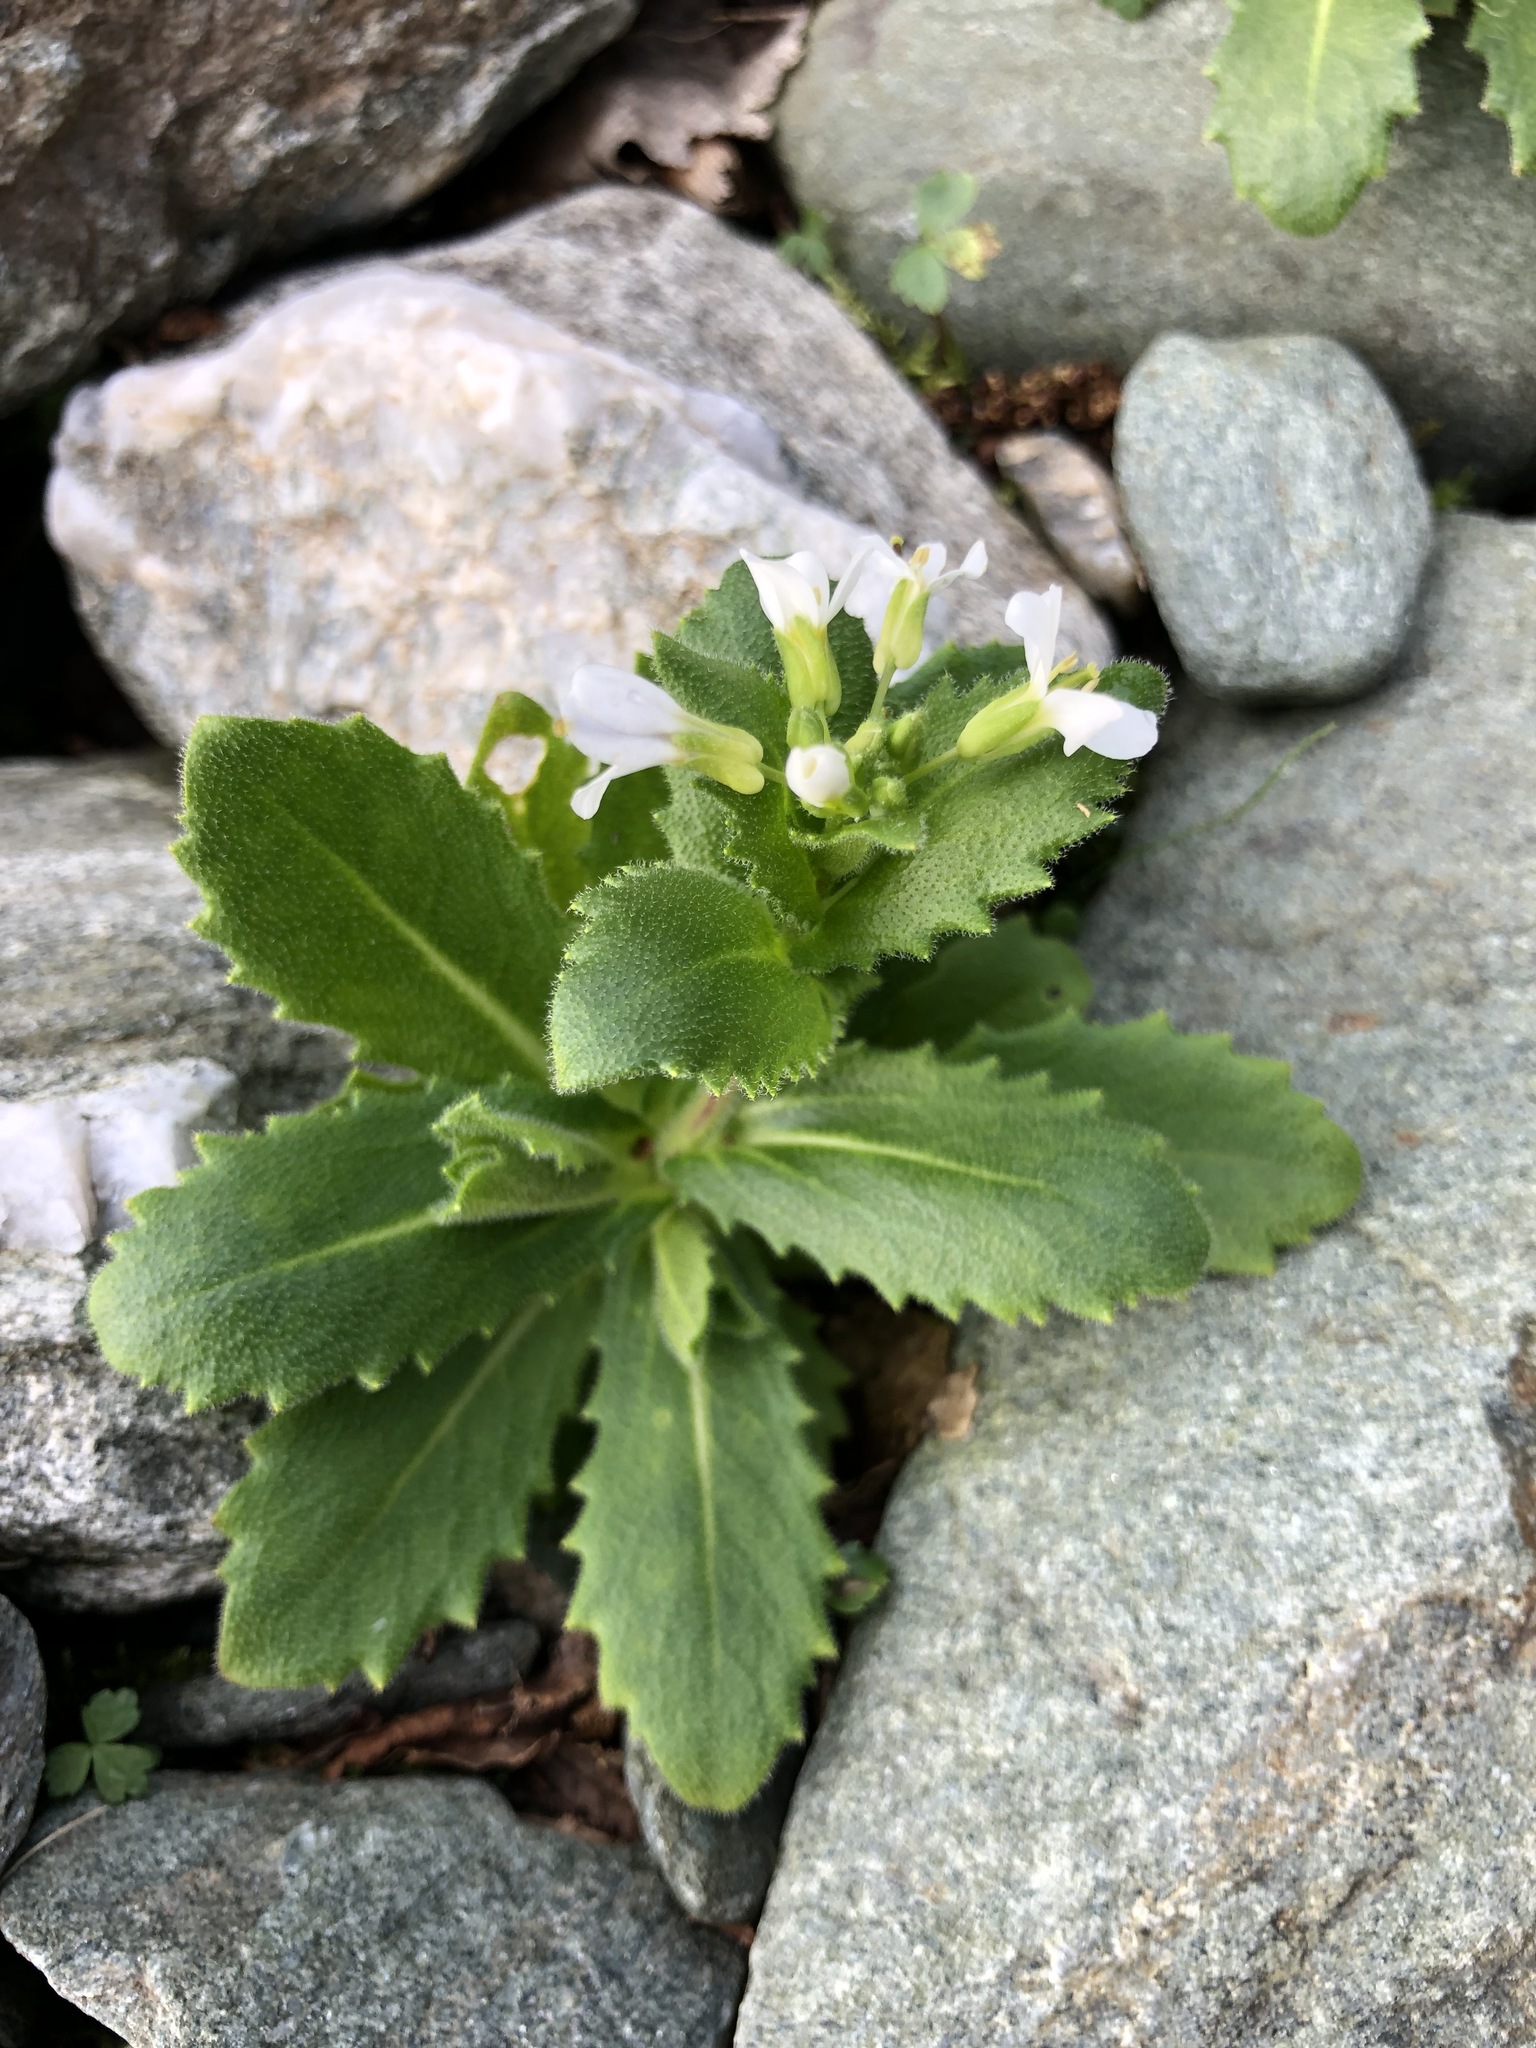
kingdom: Plantae
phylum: Tracheophyta
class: Magnoliopsida
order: Brassicales
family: Brassicaceae
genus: Arabis
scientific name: Arabis alpina
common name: Alpine rock-cress
